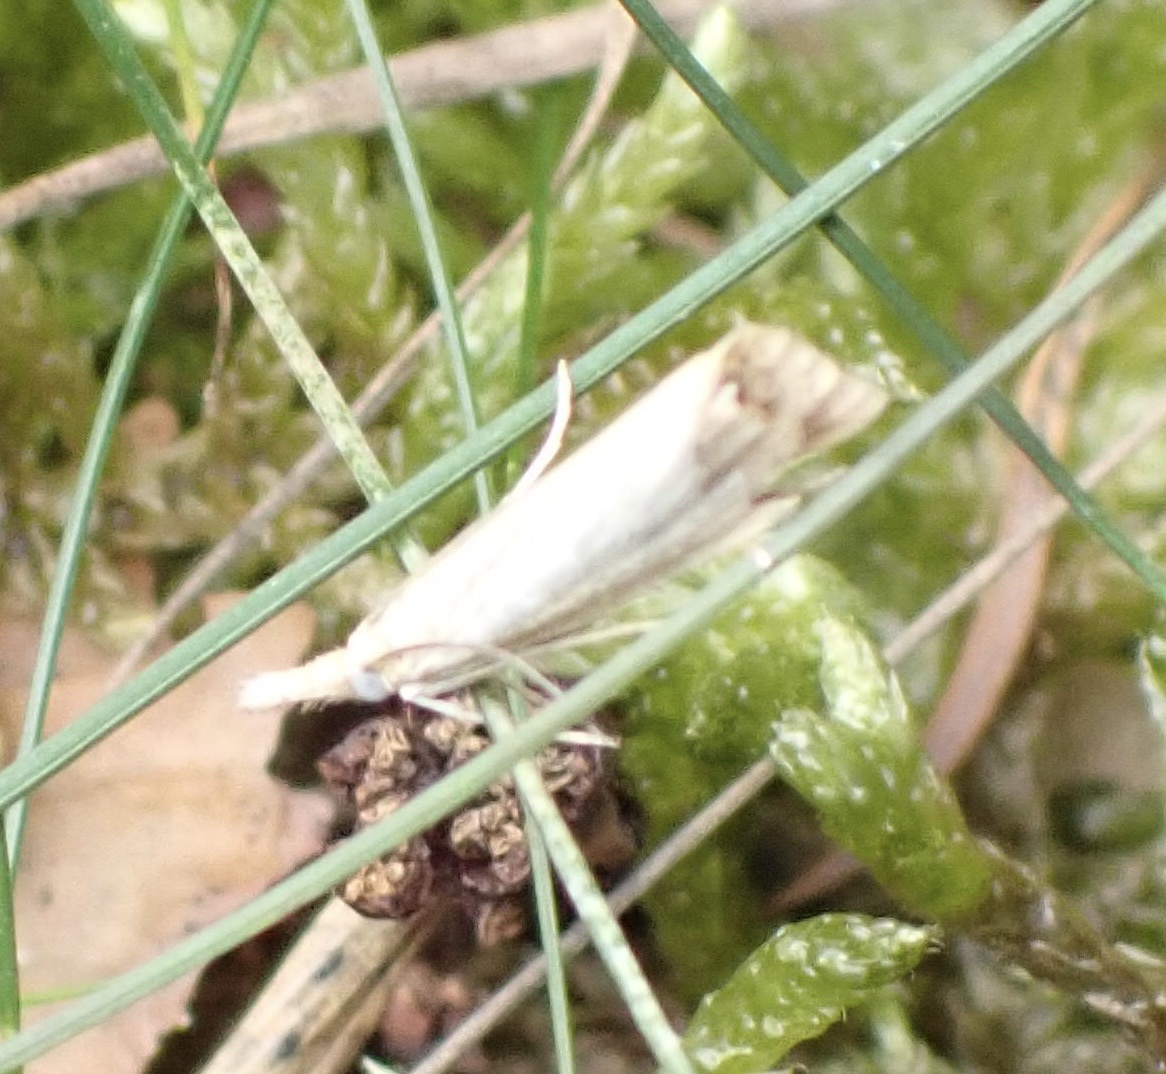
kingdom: Animalia
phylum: Arthropoda
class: Insecta
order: Lepidoptera
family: Crambidae
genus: Agriphila
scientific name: Agriphila straminella
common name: Straw grass-veneer
